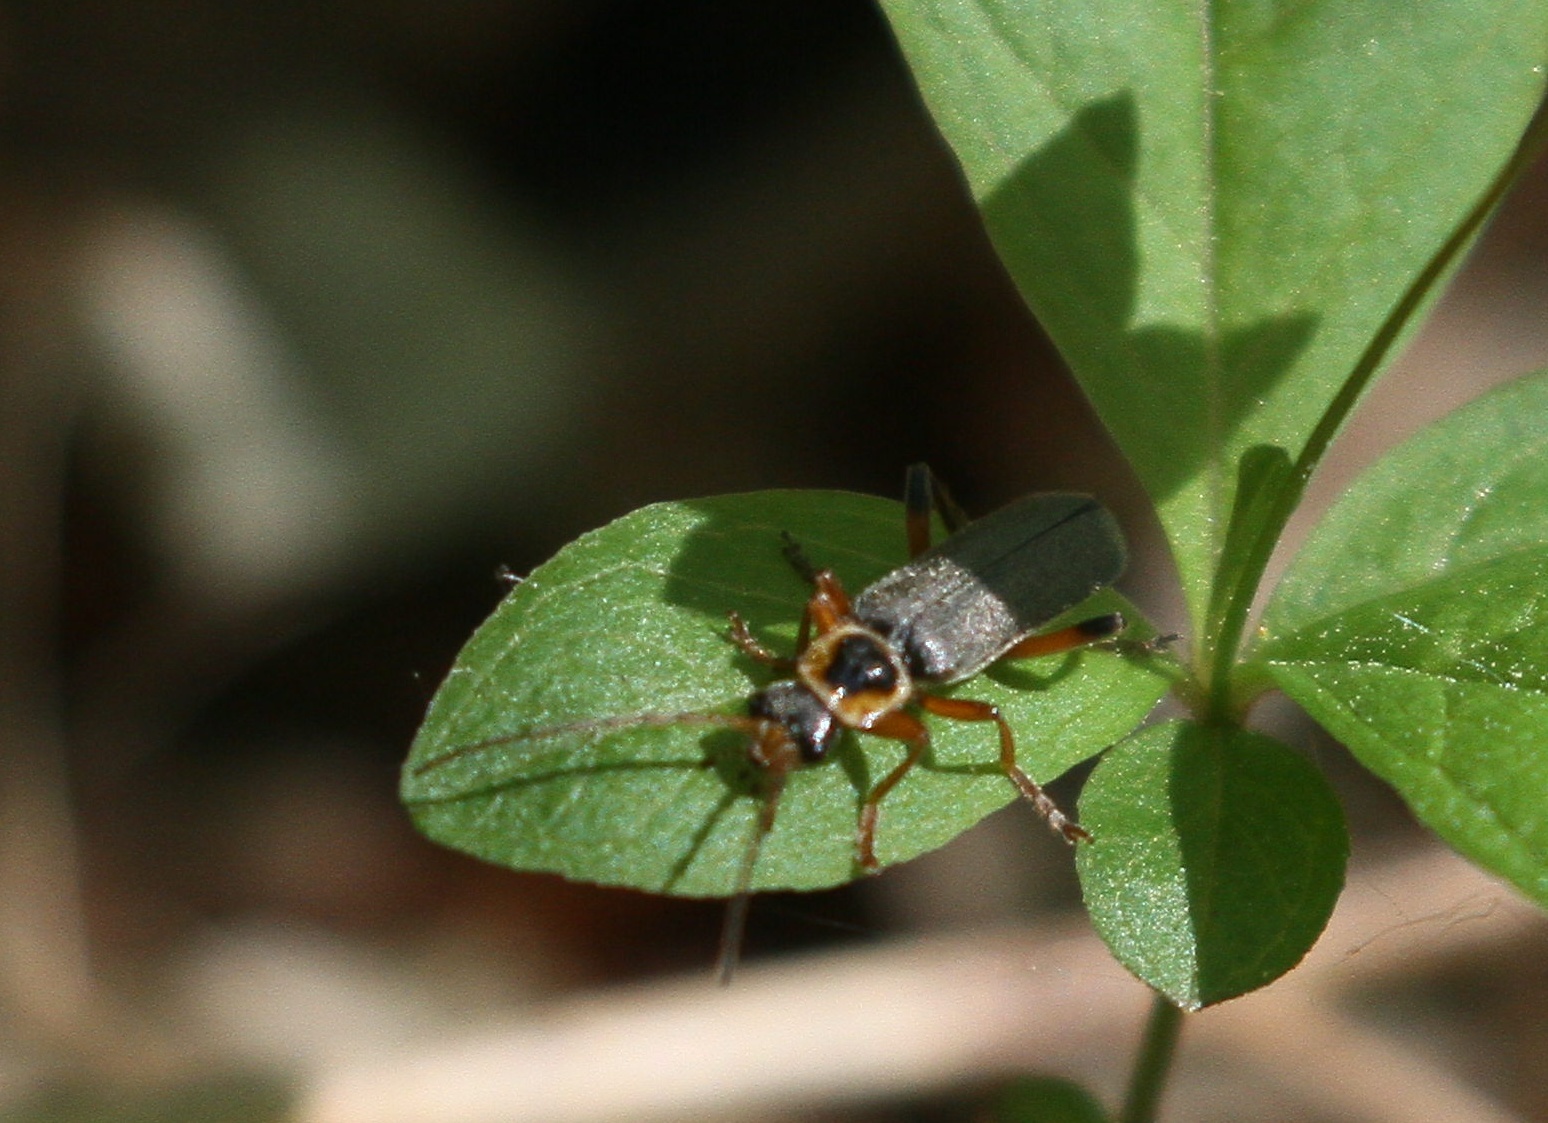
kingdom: Animalia
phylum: Arthropoda
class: Insecta
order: Coleoptera
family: Cantharidae
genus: Cantharis
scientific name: Cantharis nigricans
